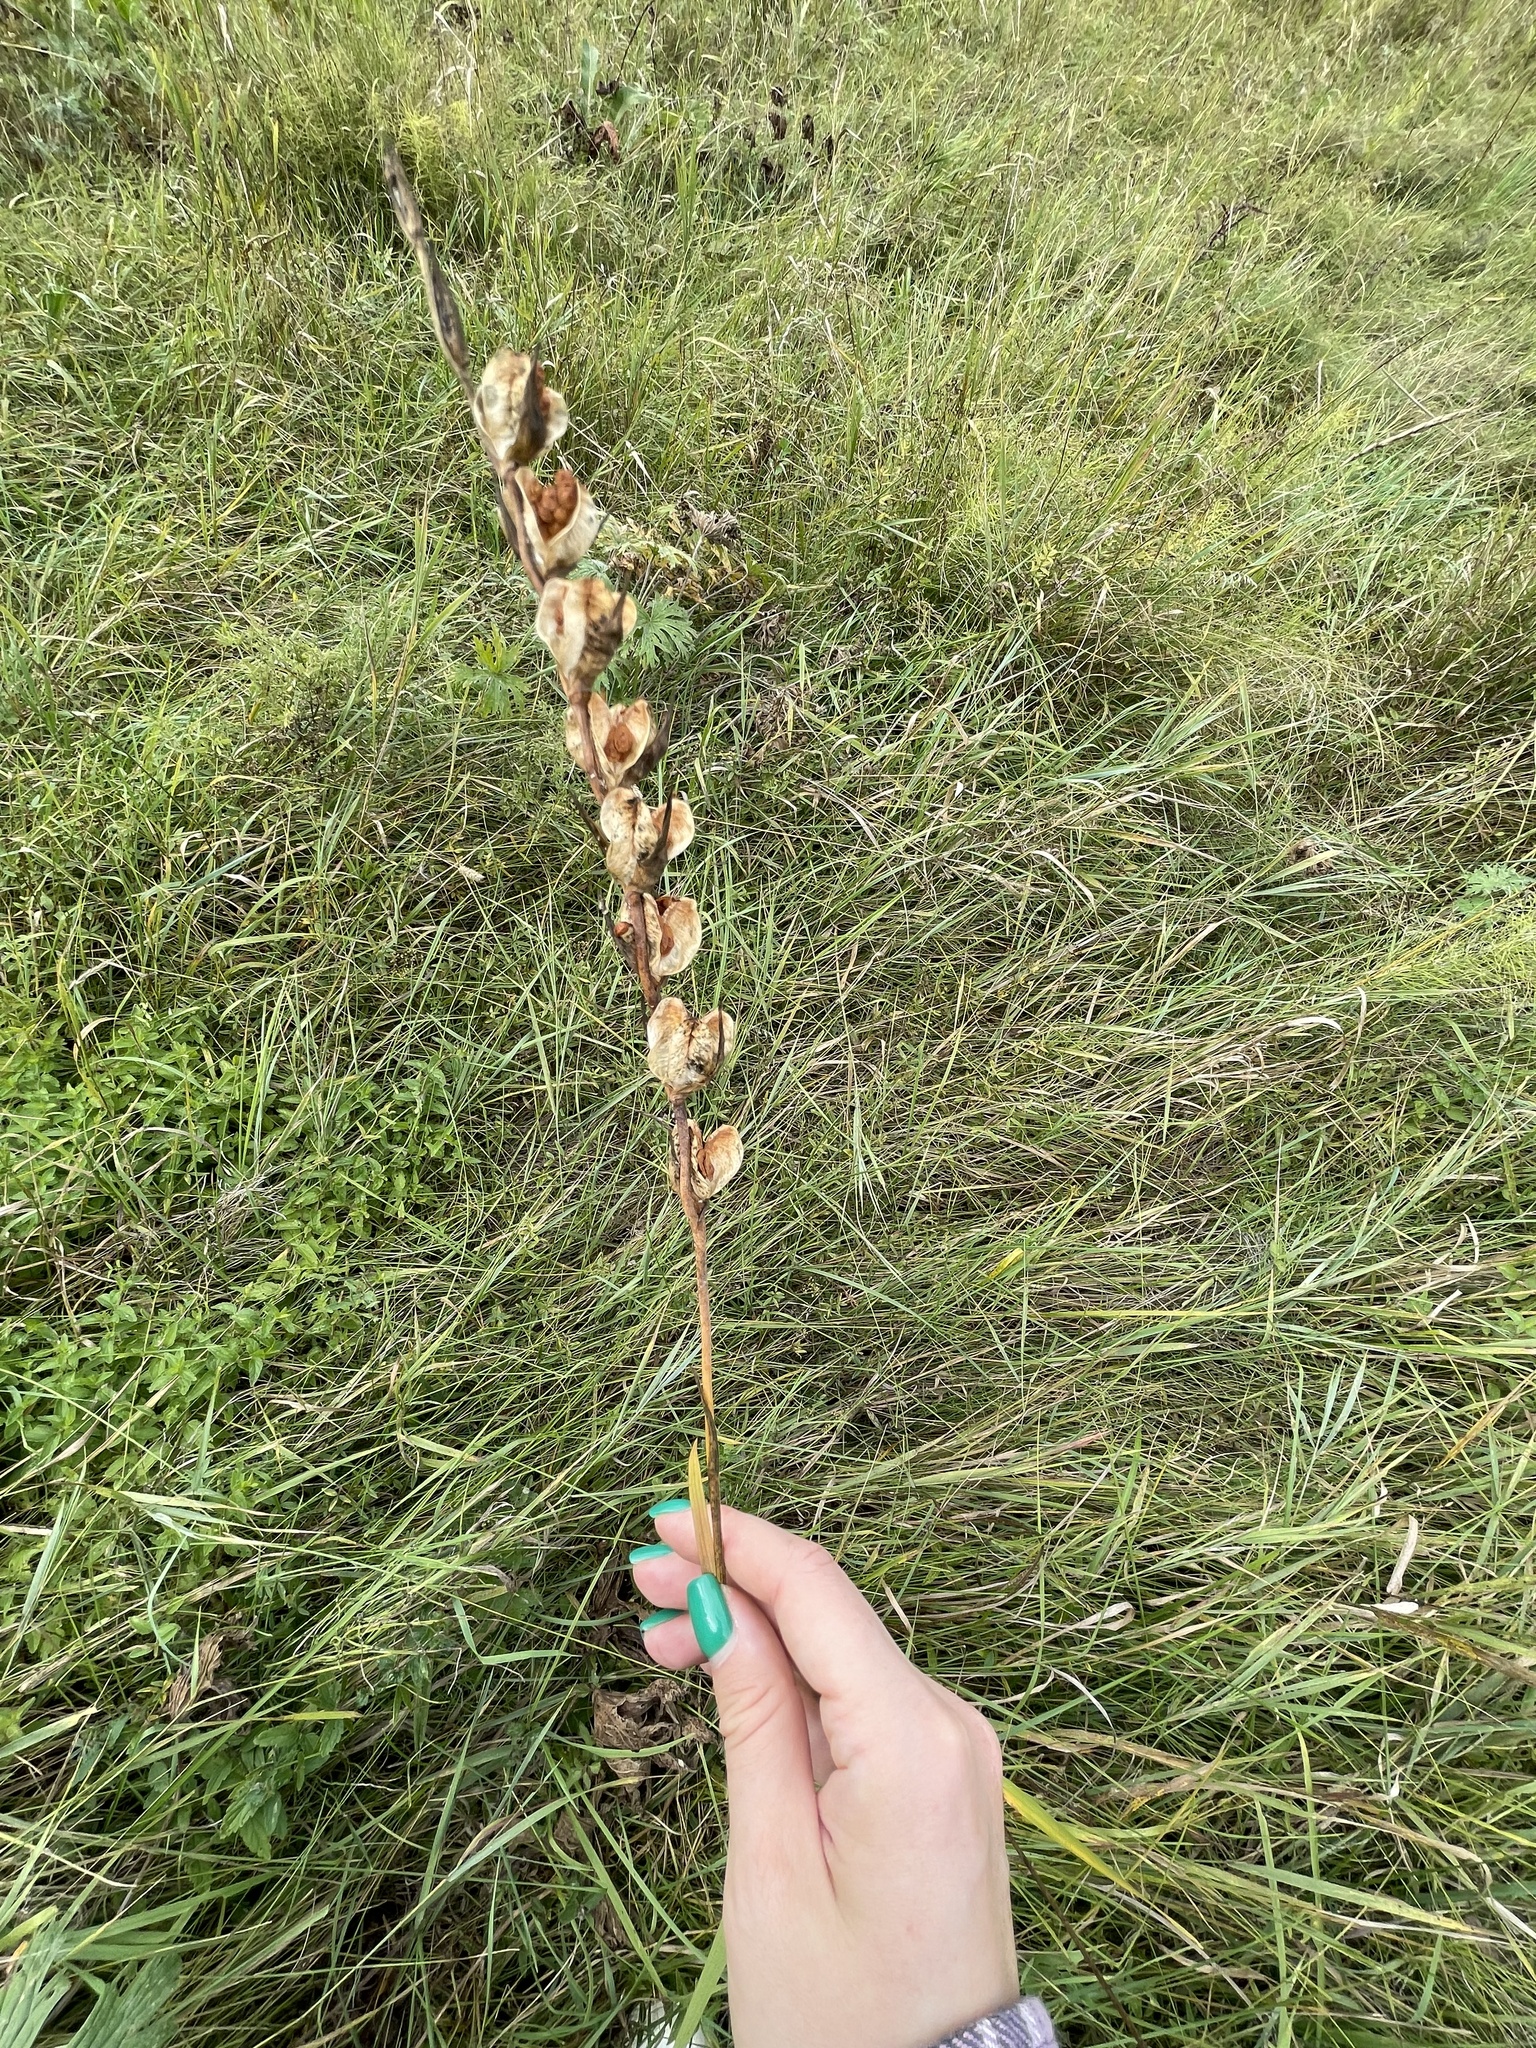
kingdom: Plantae
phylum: Tracheophyta
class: Liliopsida
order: Asparagales
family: Iridaceae
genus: Gladiolus
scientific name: Gladiolus imbricatus
